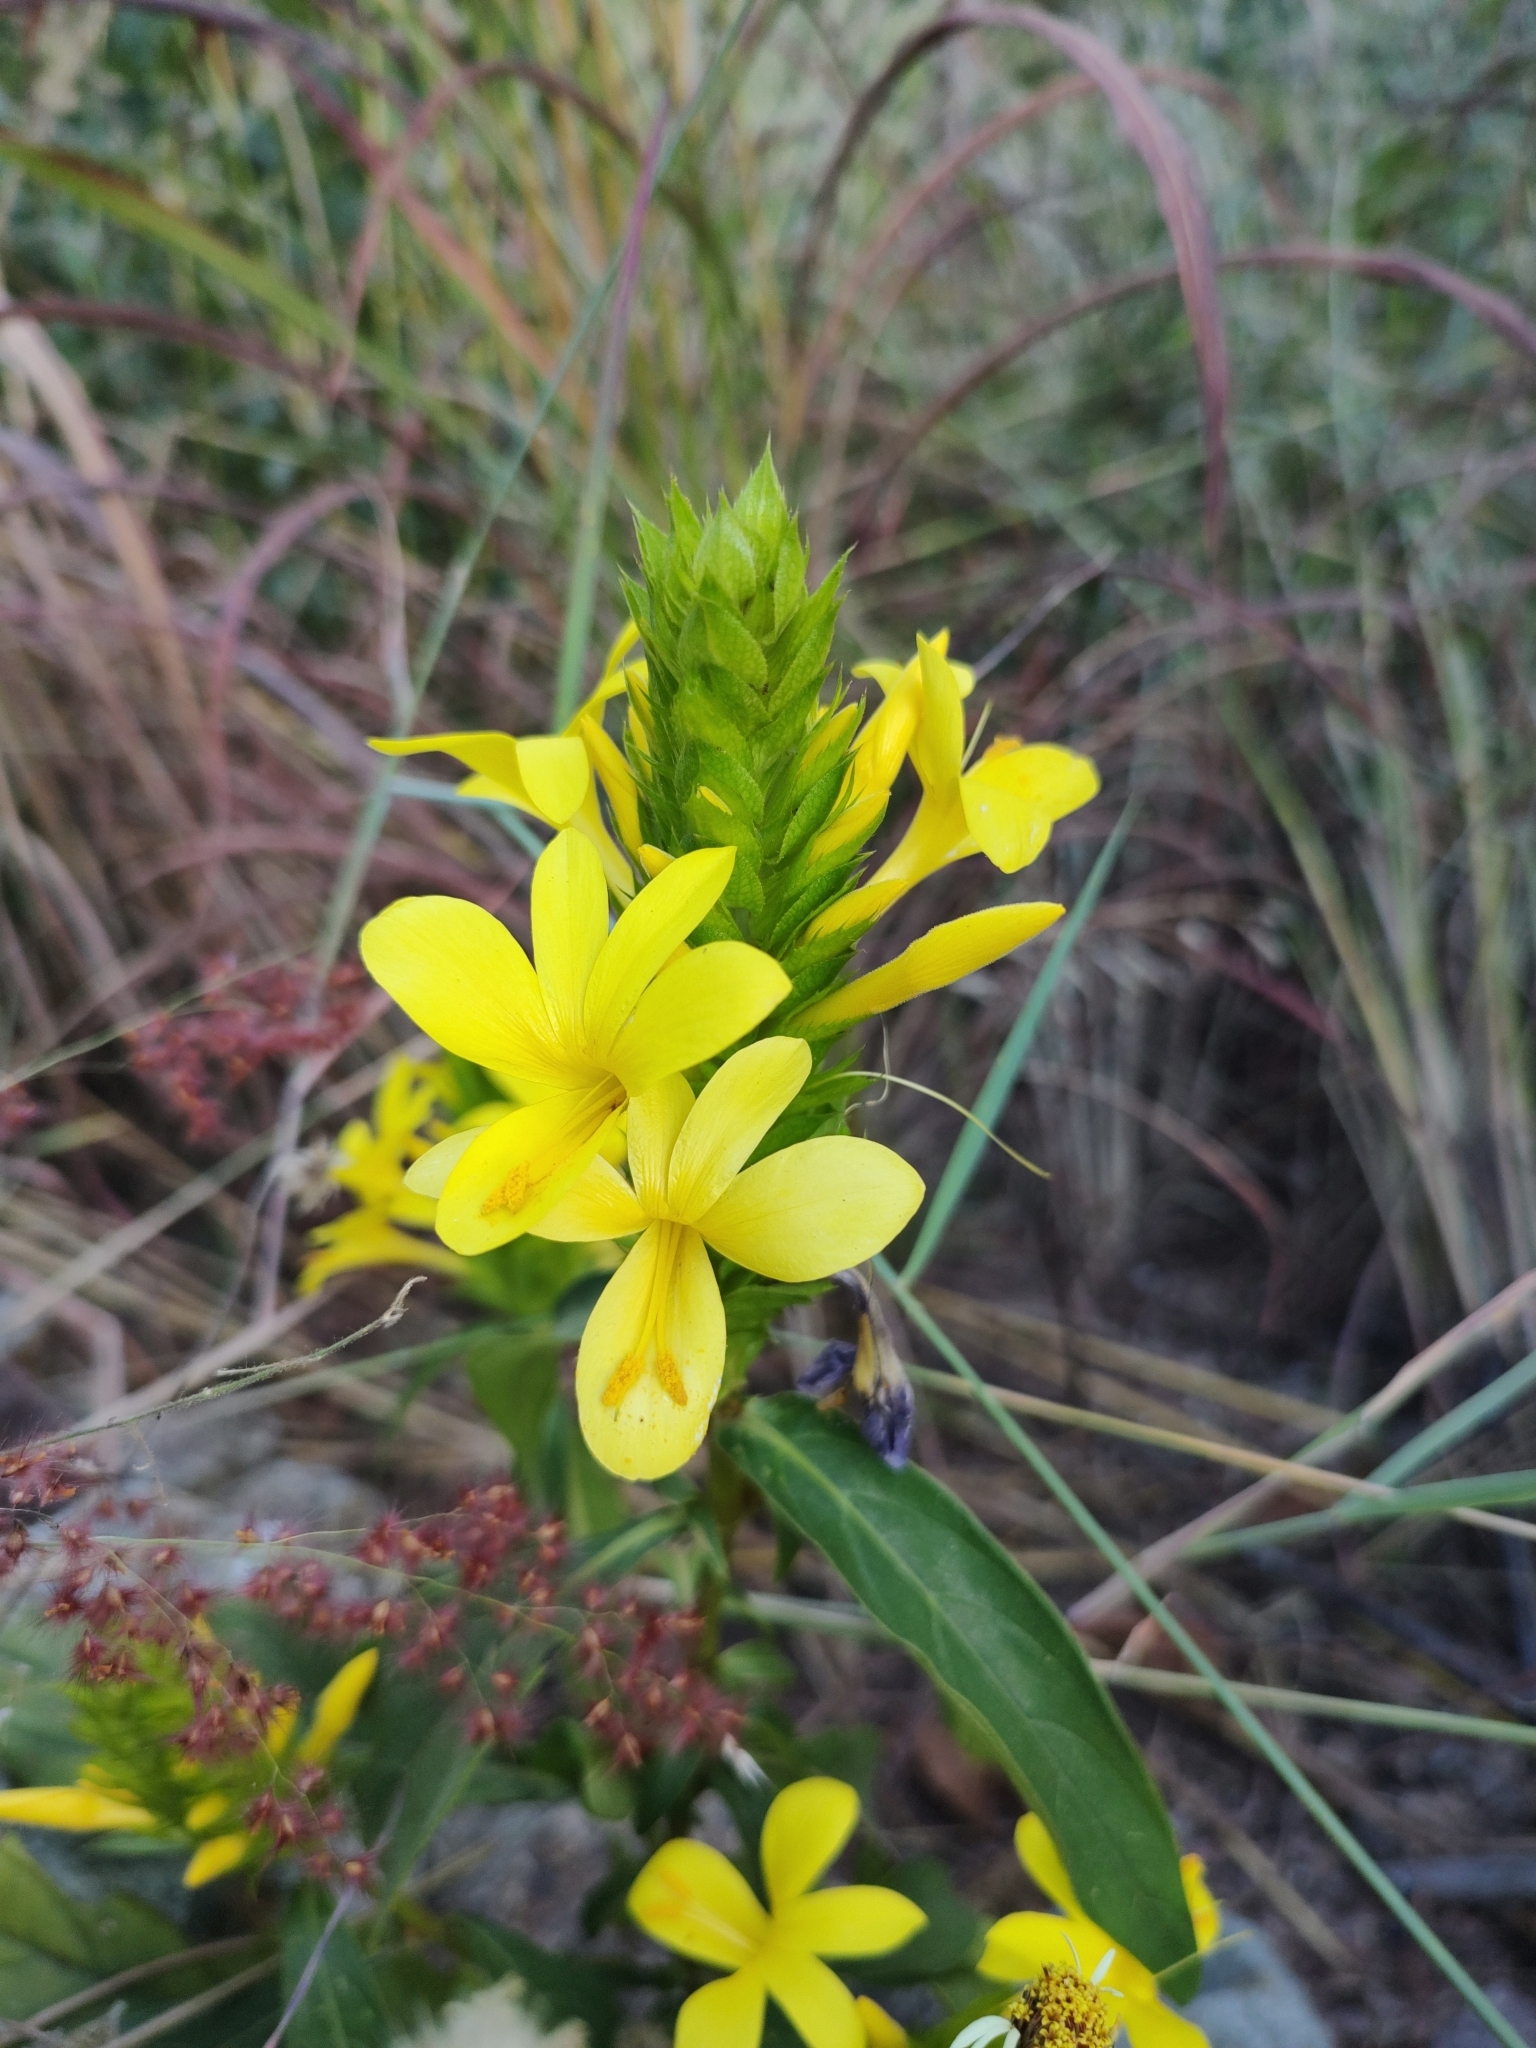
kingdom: Plantae
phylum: Tracheophyta
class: Magnoliopsida
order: Lamiales
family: Acanthaceae
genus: Barleria
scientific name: Barleria oenotheroides
